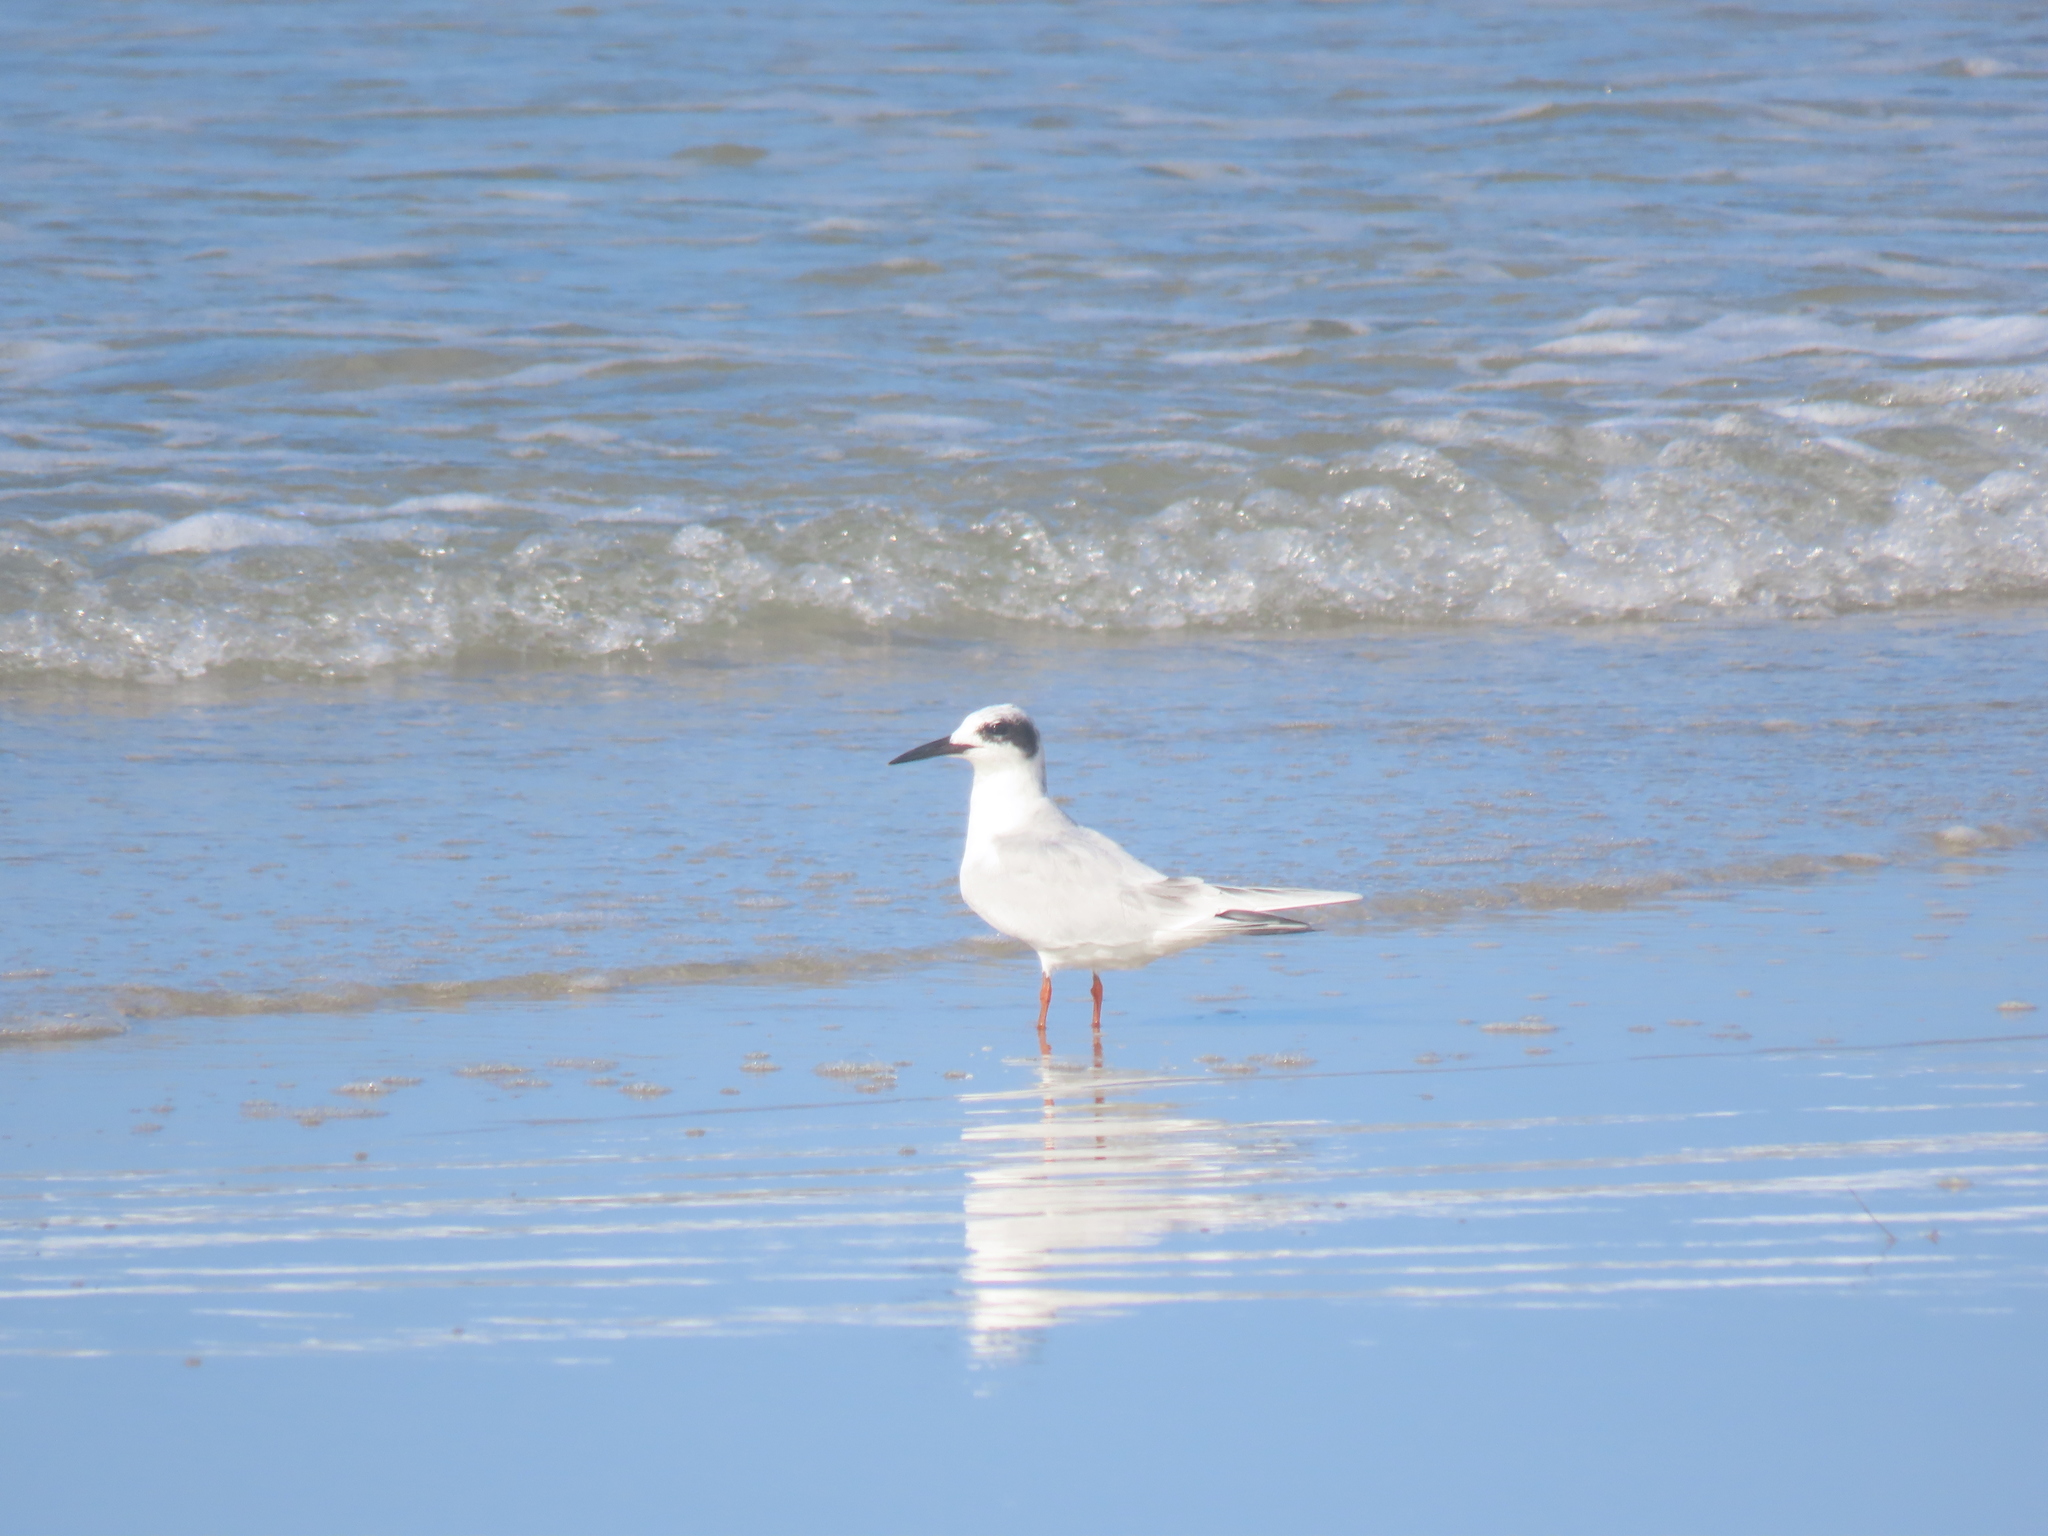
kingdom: Animalia
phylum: Chordata
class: Aves
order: Charadriiformes
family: Laridae
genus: Sterna
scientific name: Sterna forsteri
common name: Forster's tern
